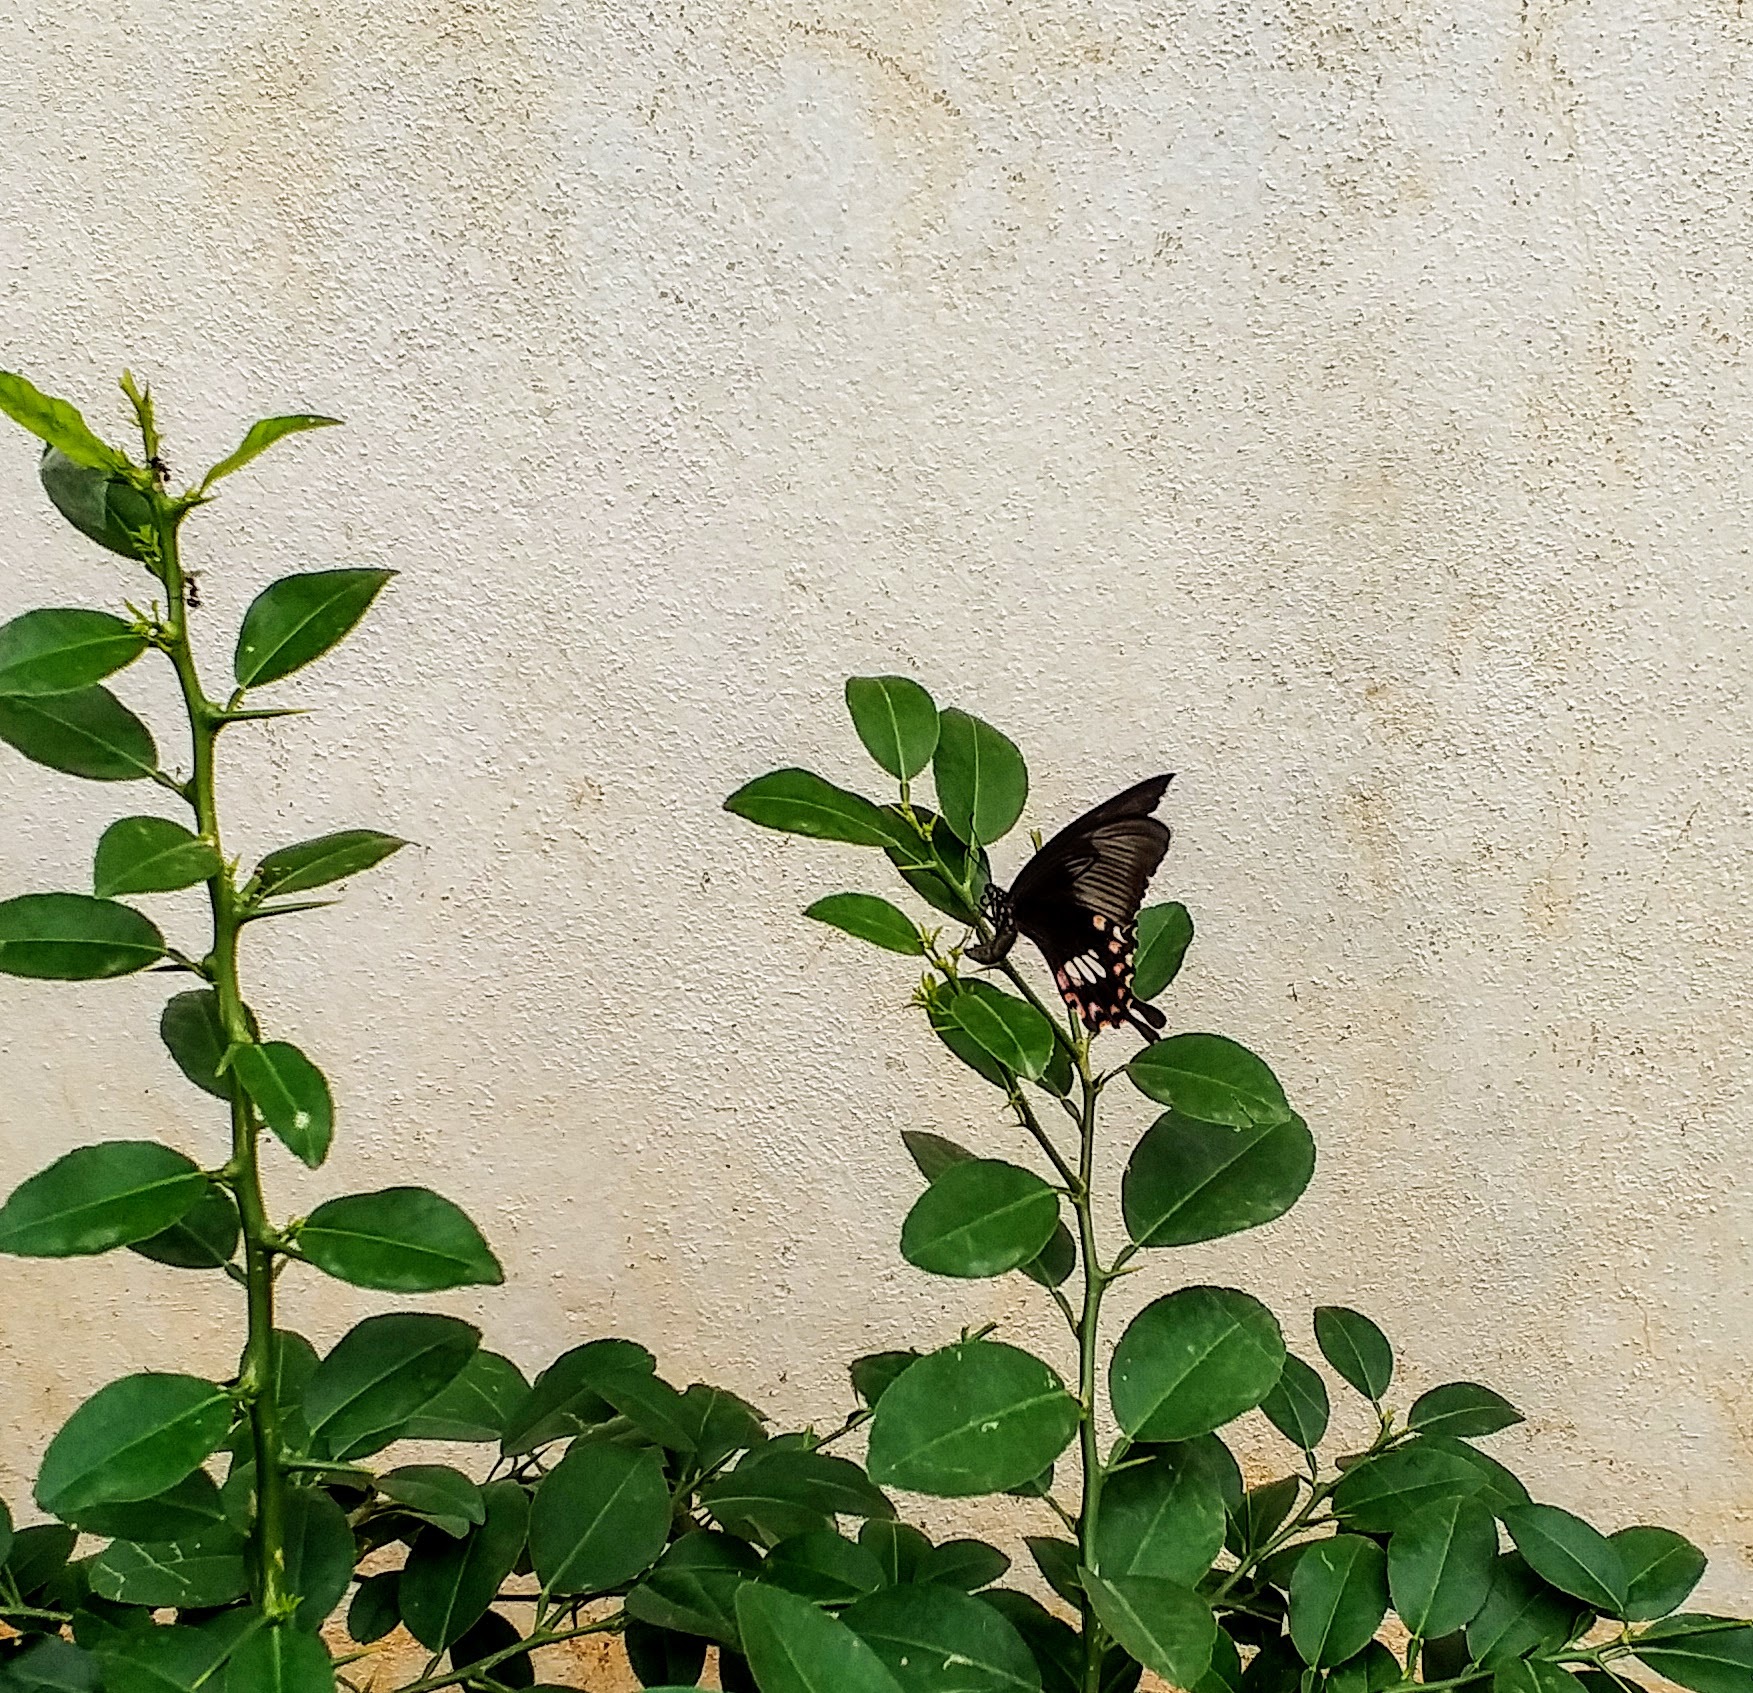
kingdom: Animalia
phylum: Arthropoda
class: Insecta
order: Lepidoptera
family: Papilionidae
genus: Papilio
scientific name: Papilio polytes
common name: Common mormon
